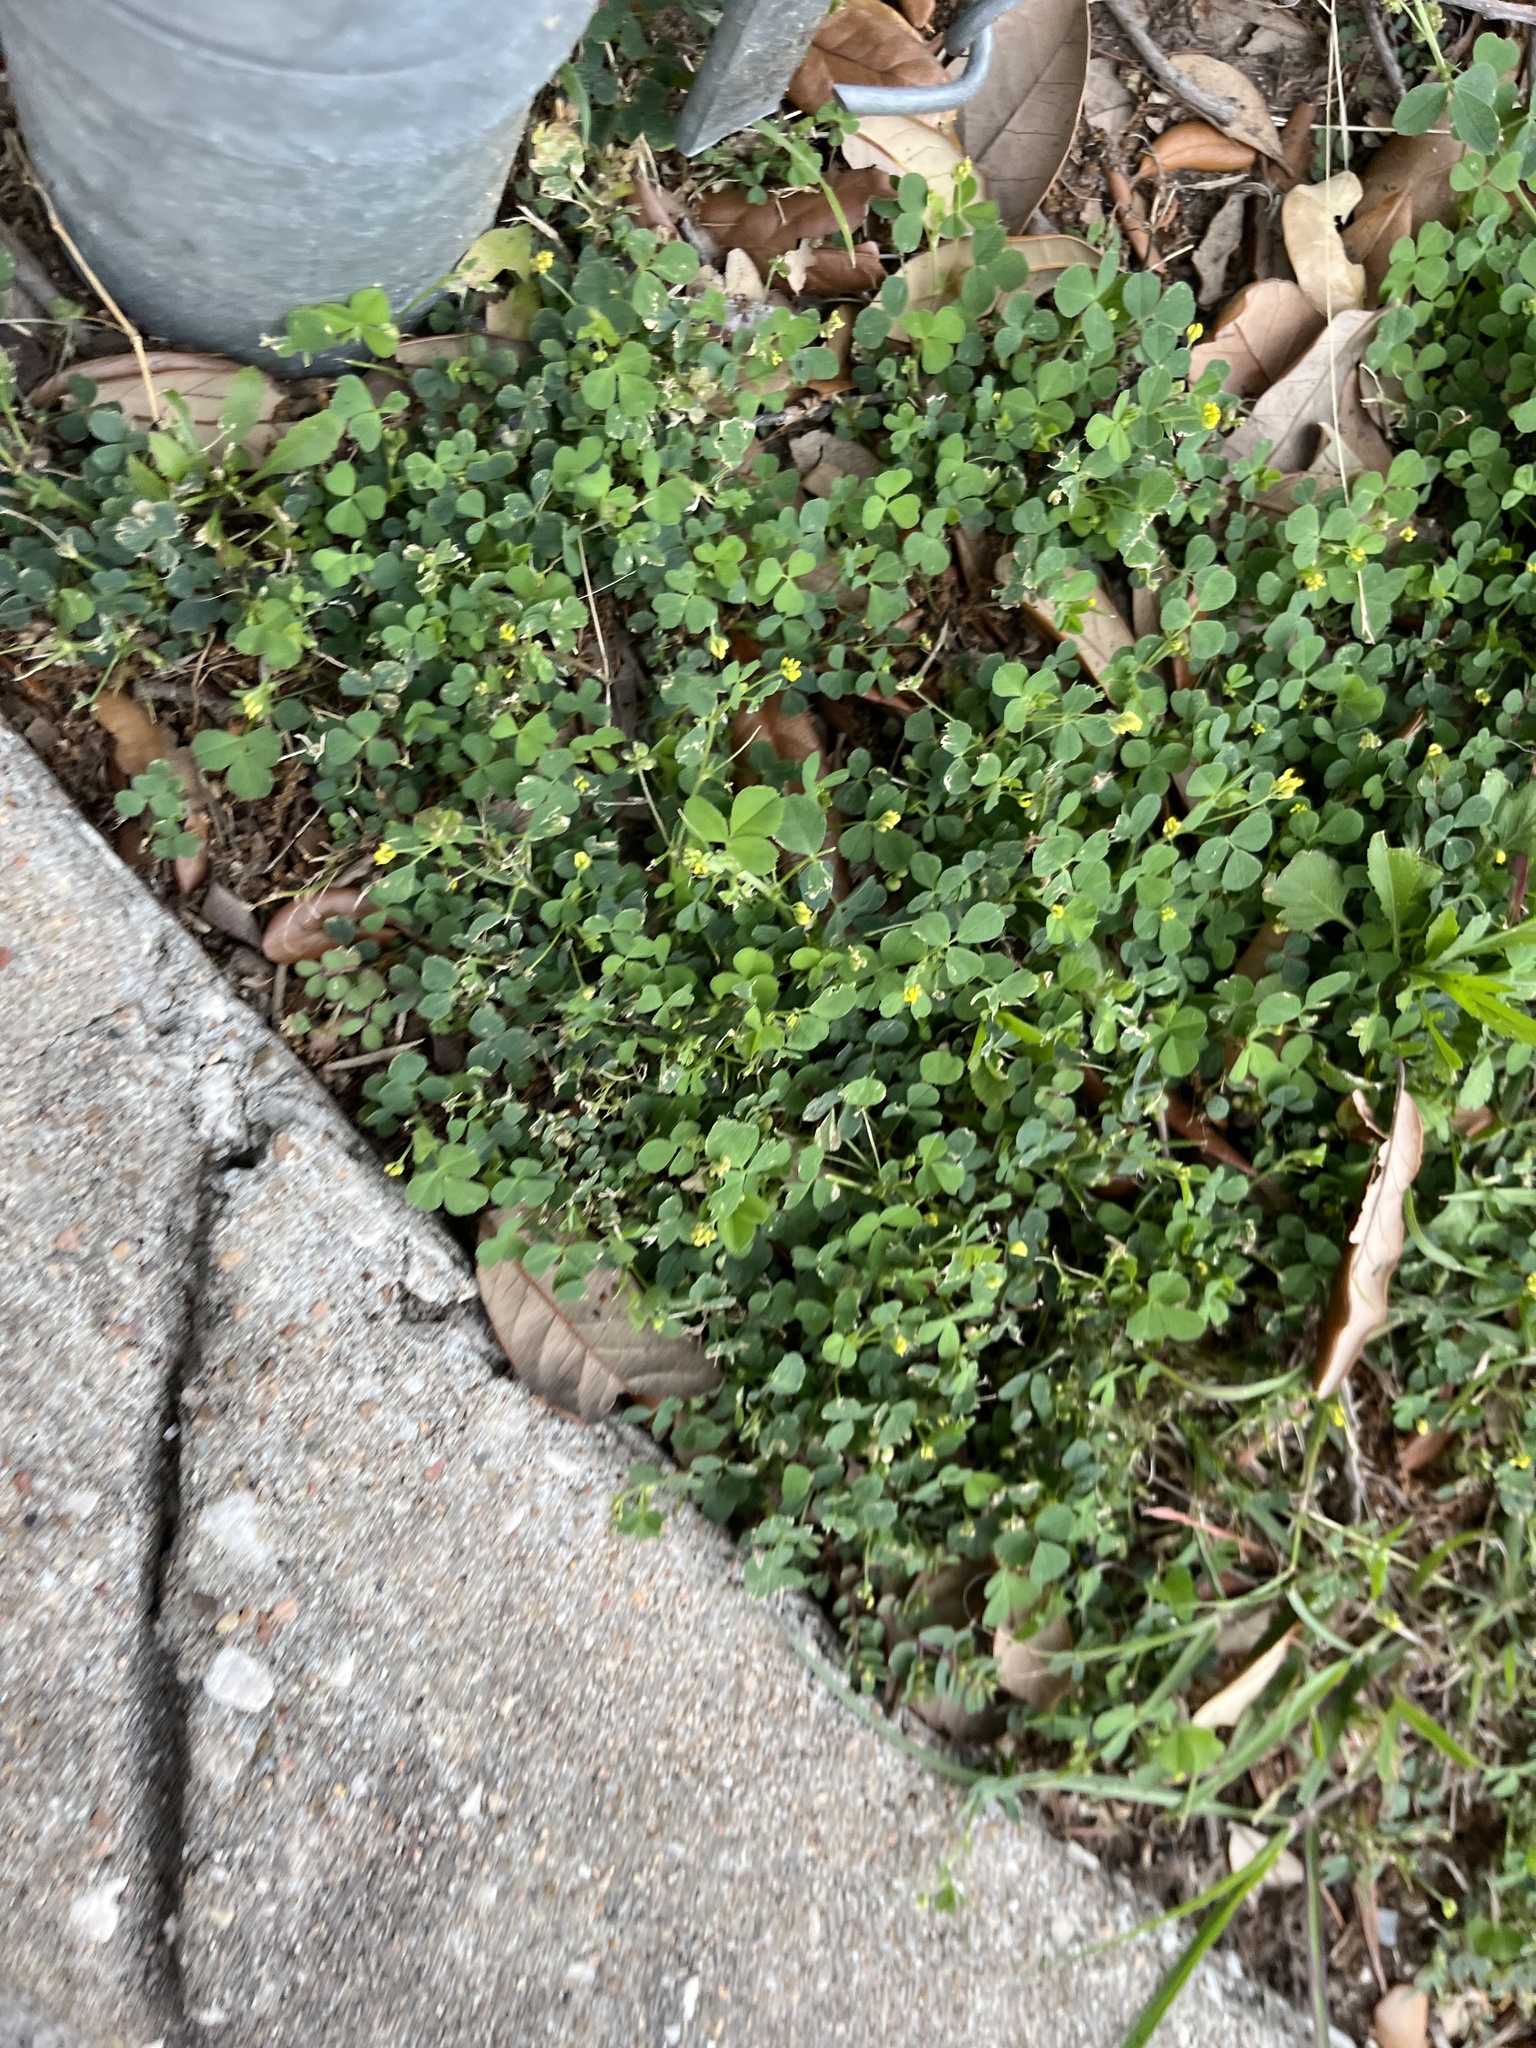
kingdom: Plantae
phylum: Tracheophyta
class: Magnoliopsida
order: Fabales
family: Fabaceae
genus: Medicago
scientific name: Medicago lupulina
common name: Black medick
